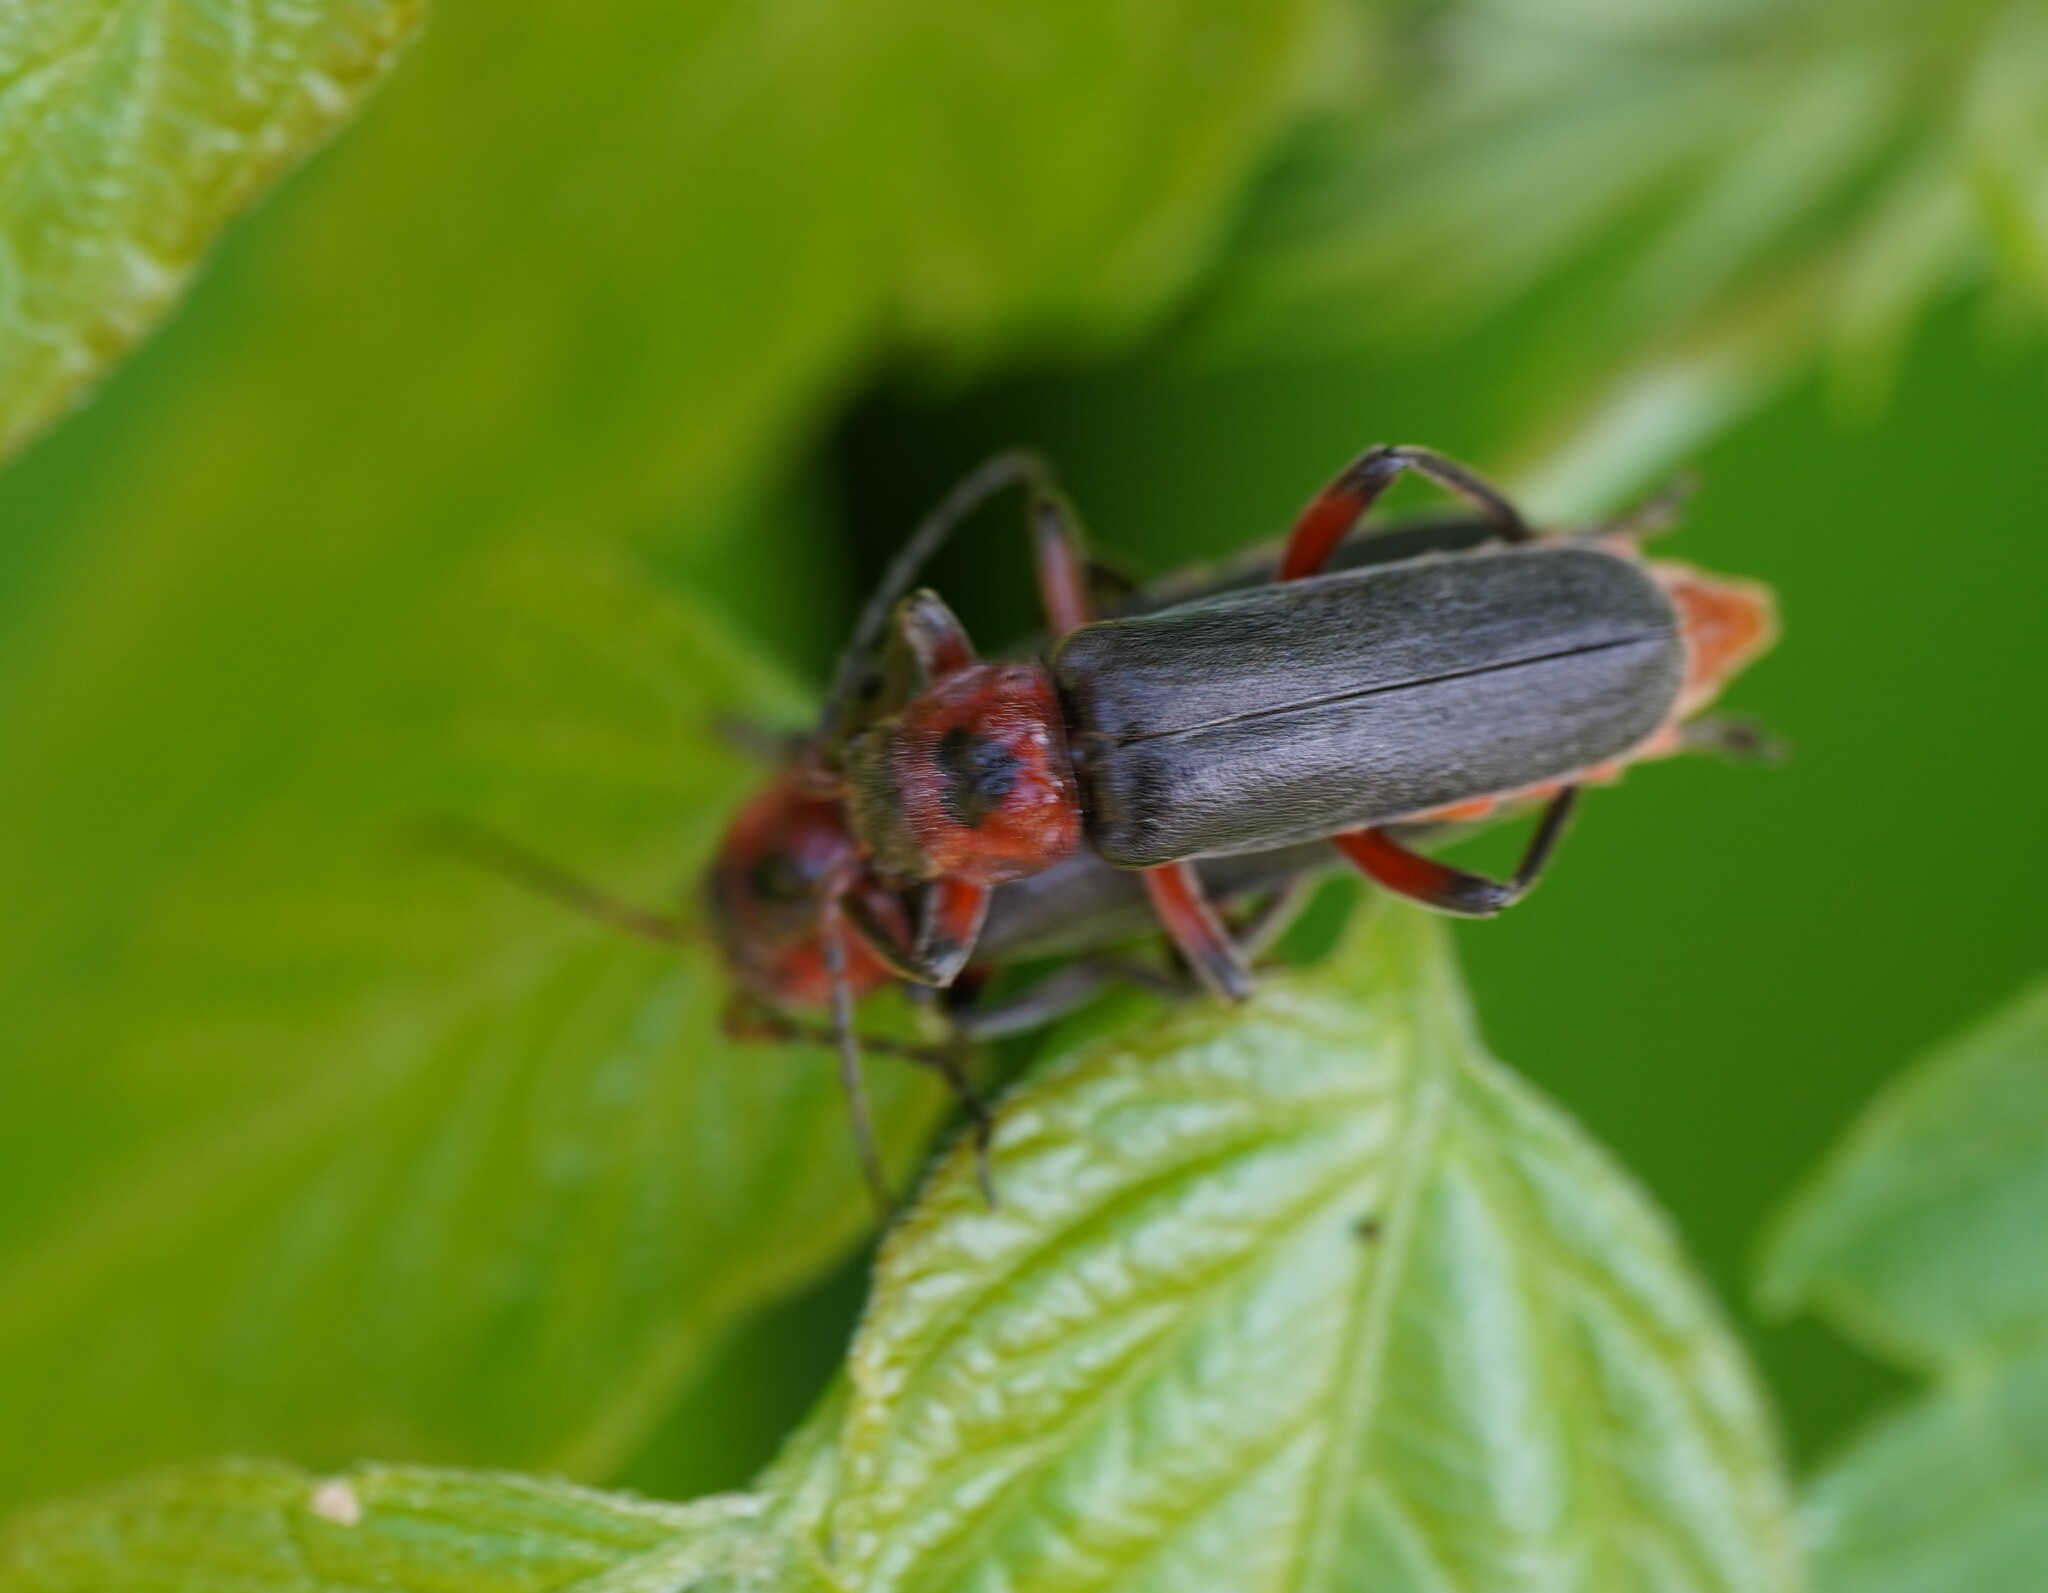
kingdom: Animalia
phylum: Arthropoda
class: Insecta
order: Coleoptera
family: Cantharidae
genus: Cantharis
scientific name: Cantharis rustica
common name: Soldier beetle
